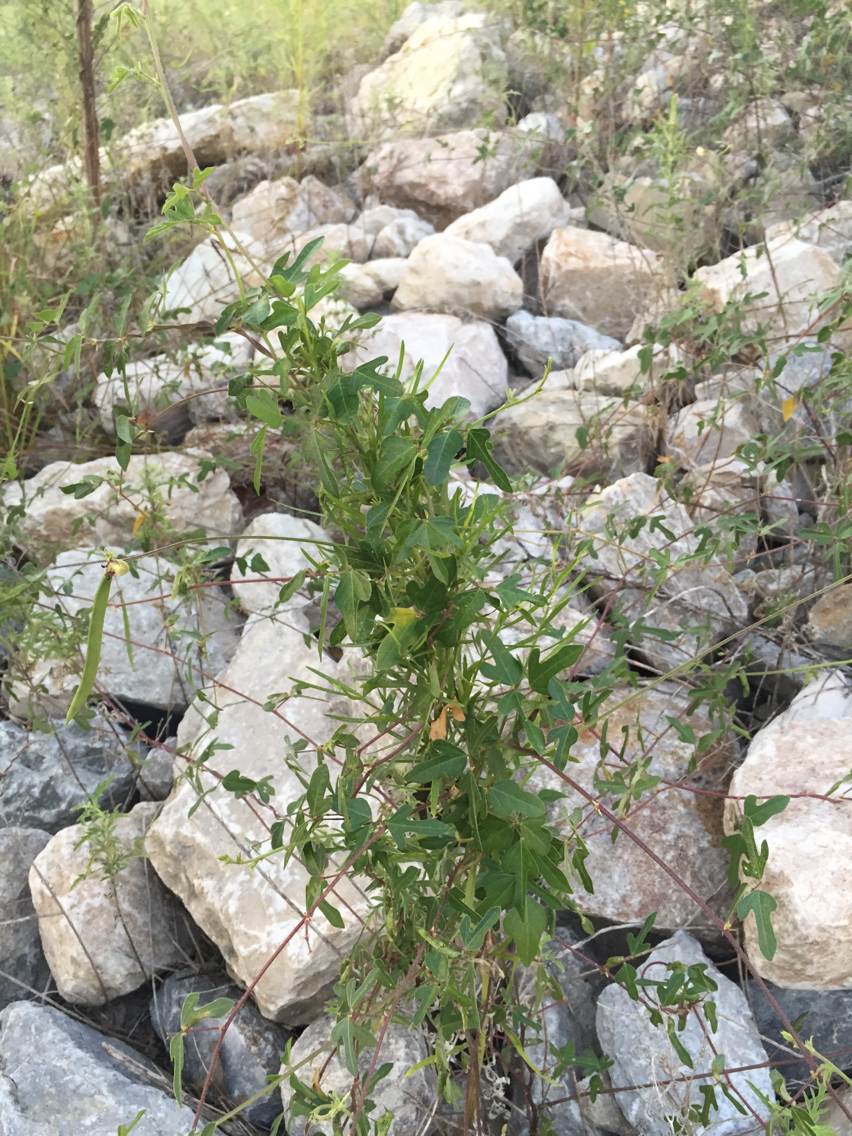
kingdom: Plantae
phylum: Tracheophyta
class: Magnoliopsida
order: Fabales
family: Fabaceae
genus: Strophostyles
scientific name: Strophostyles helvola
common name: Trailing wild bean
